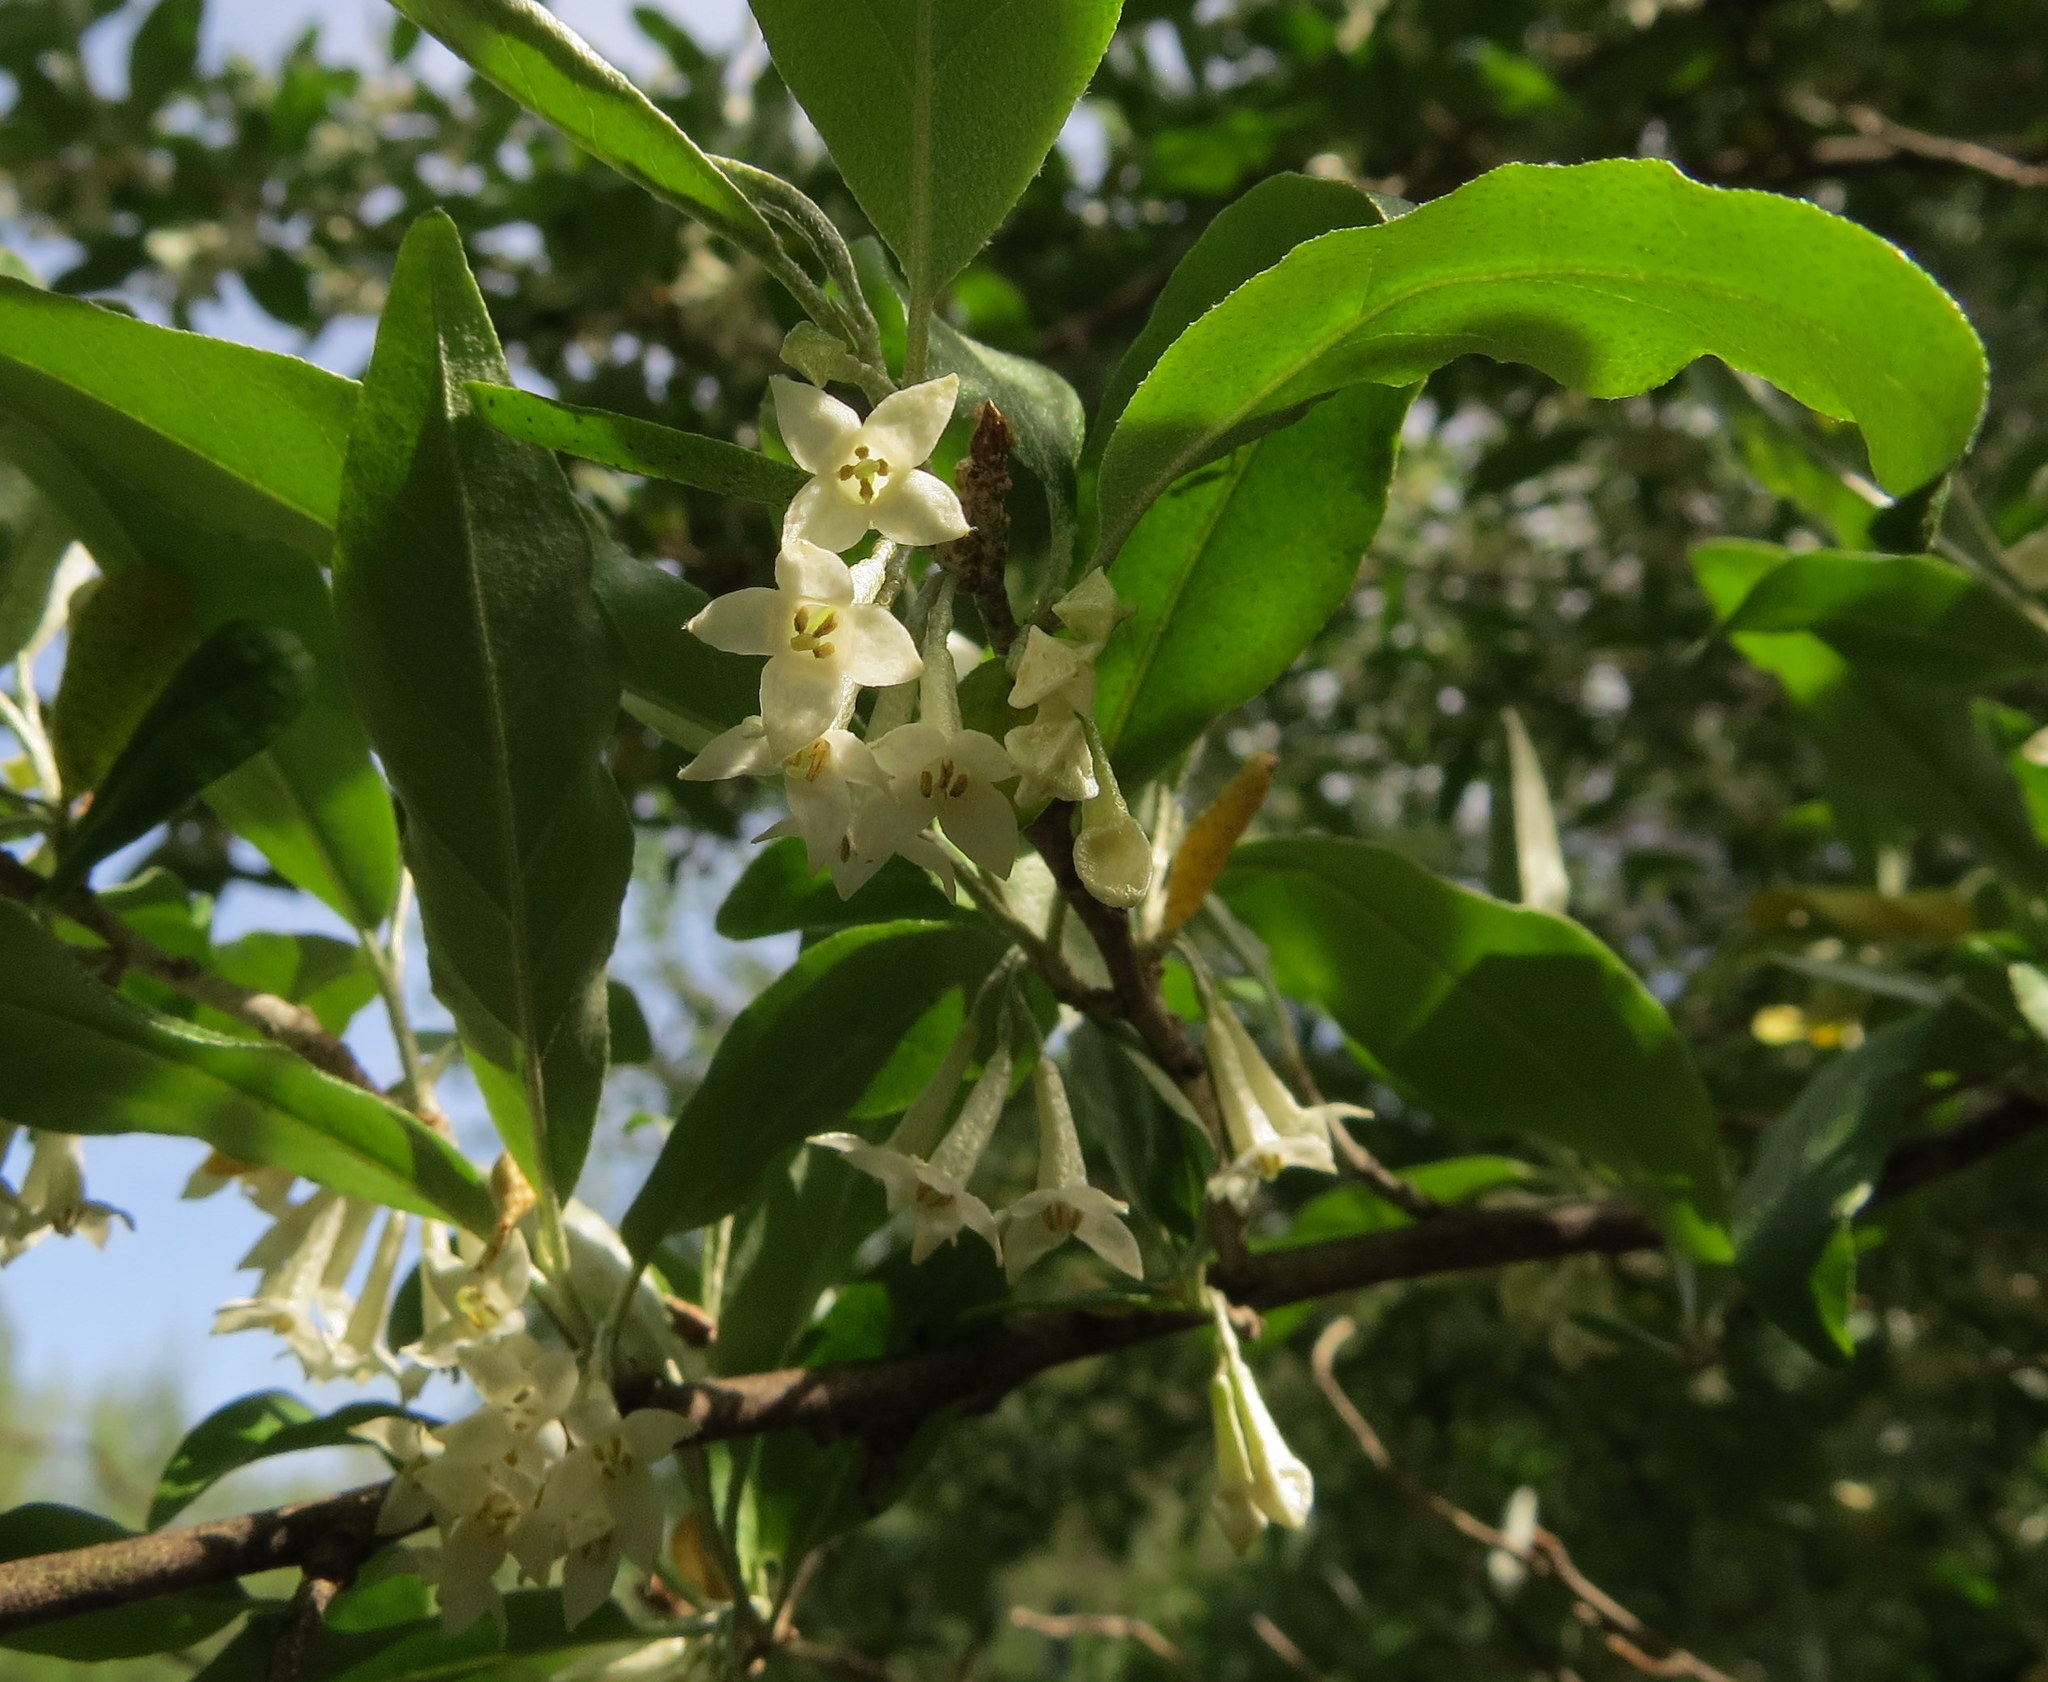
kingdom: Plantae
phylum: Tracheophyta
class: Magnoliopsida
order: Rosales
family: Elaeagnaceae
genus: Elaeagnus
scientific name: Elaeagnus umbellata
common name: Autumn olive
